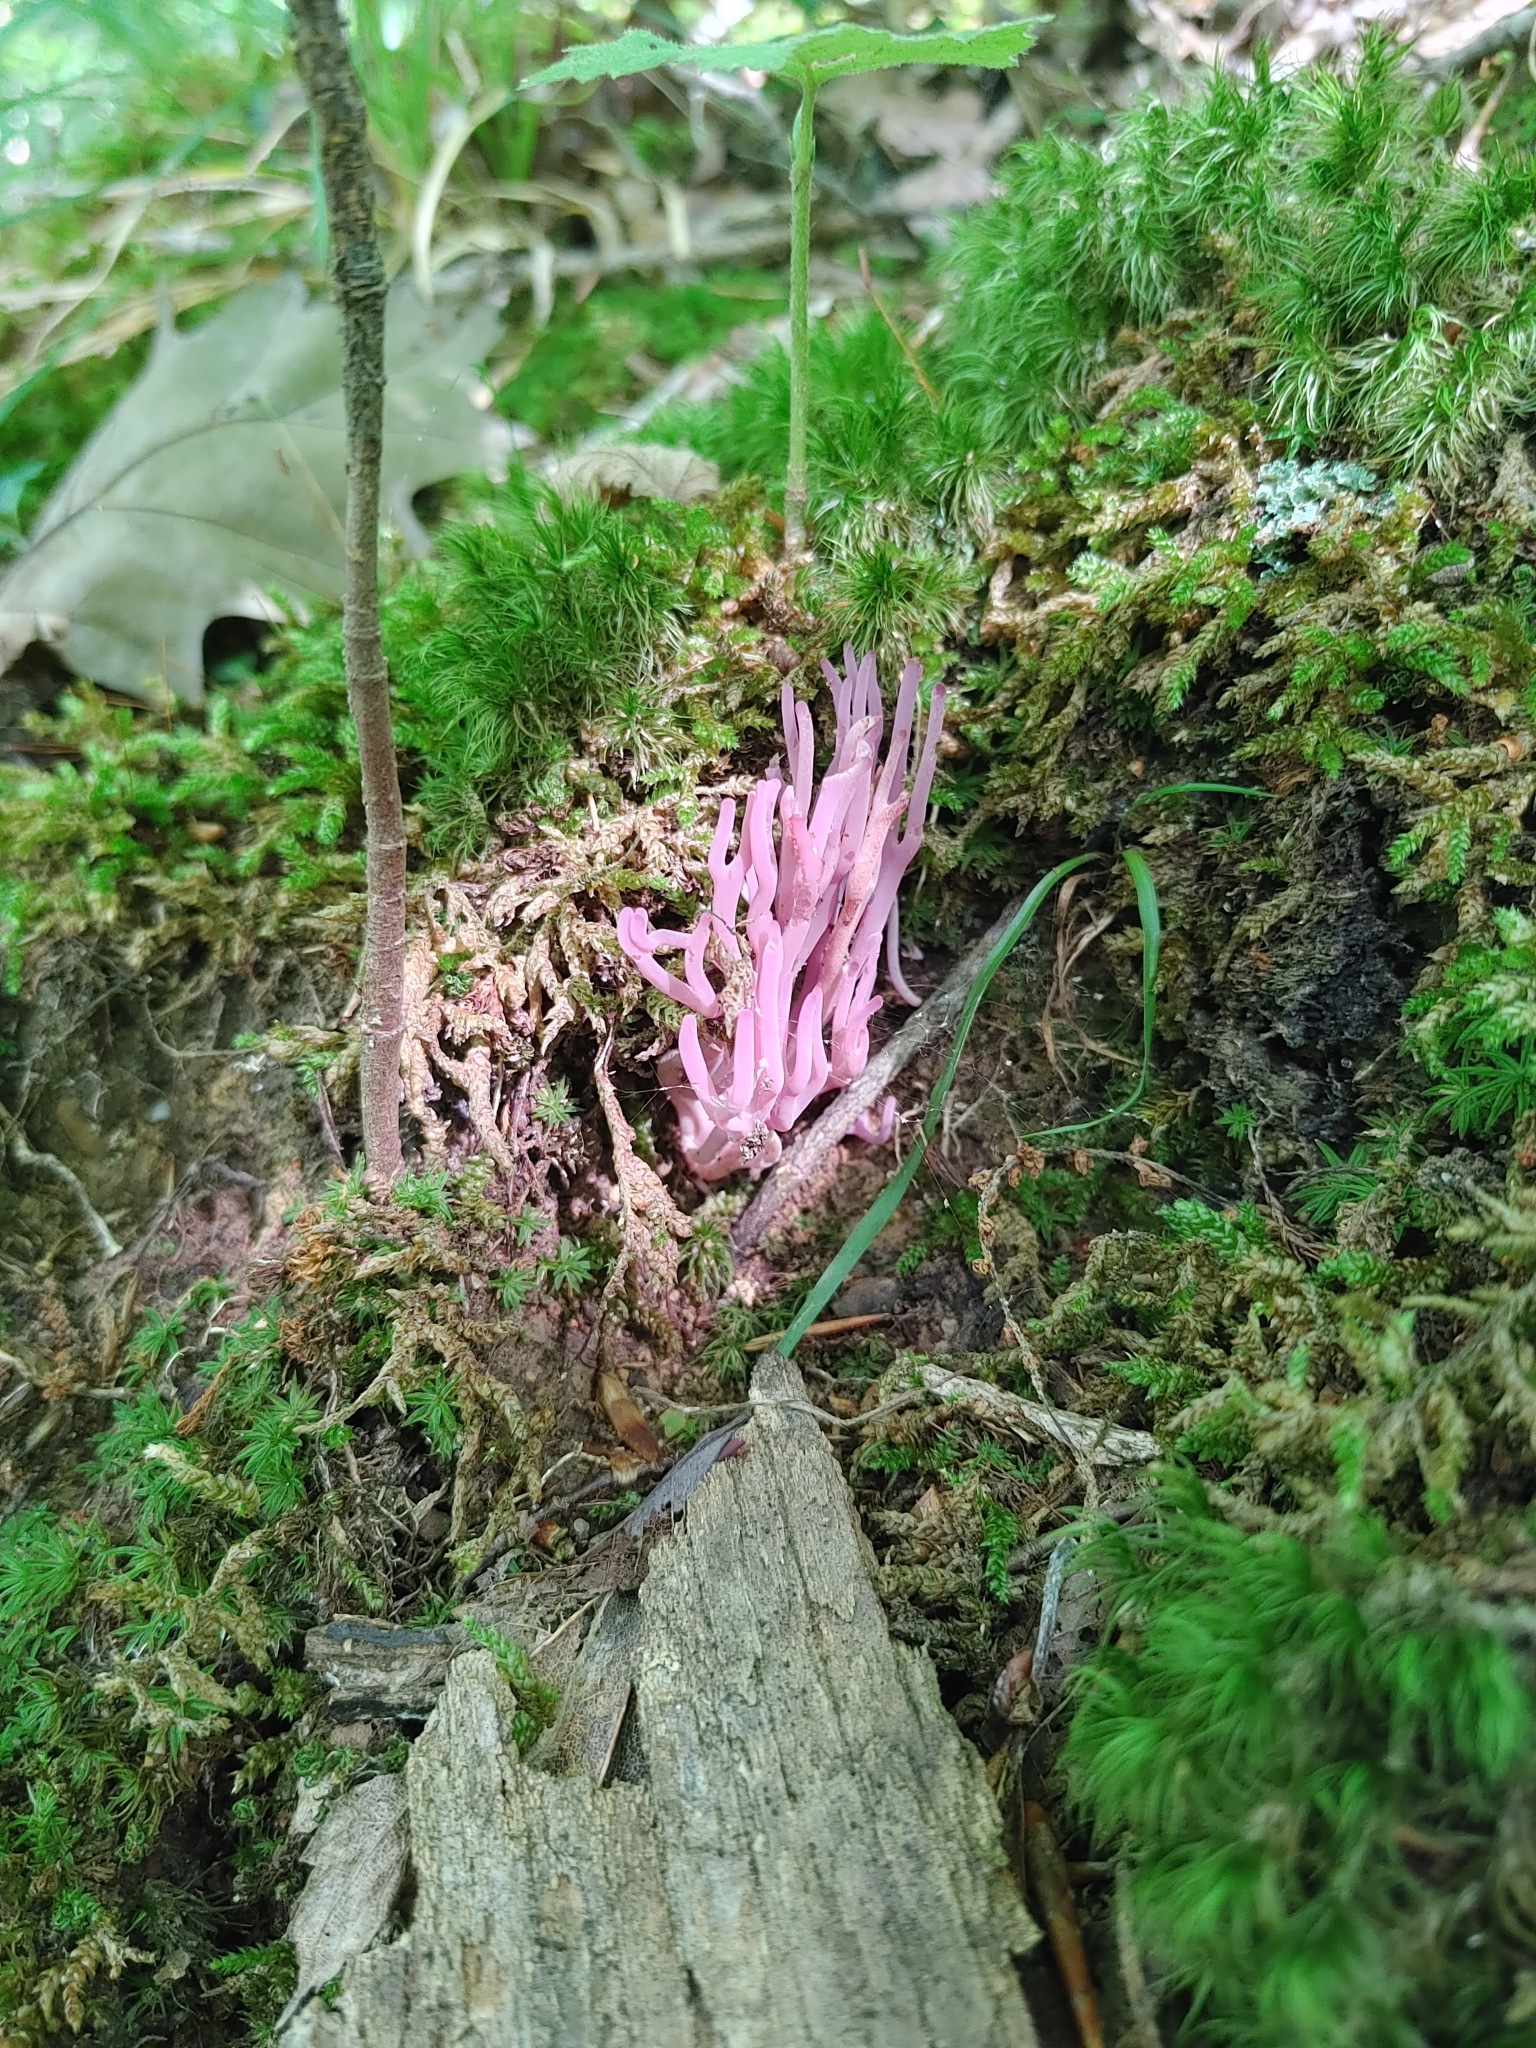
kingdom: Fungi
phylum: Basidiomycota
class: Agaricomycetes
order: Agaricales
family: Clavariaceae
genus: Clavaria
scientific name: Clavaria zollingeri
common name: Violet coral
